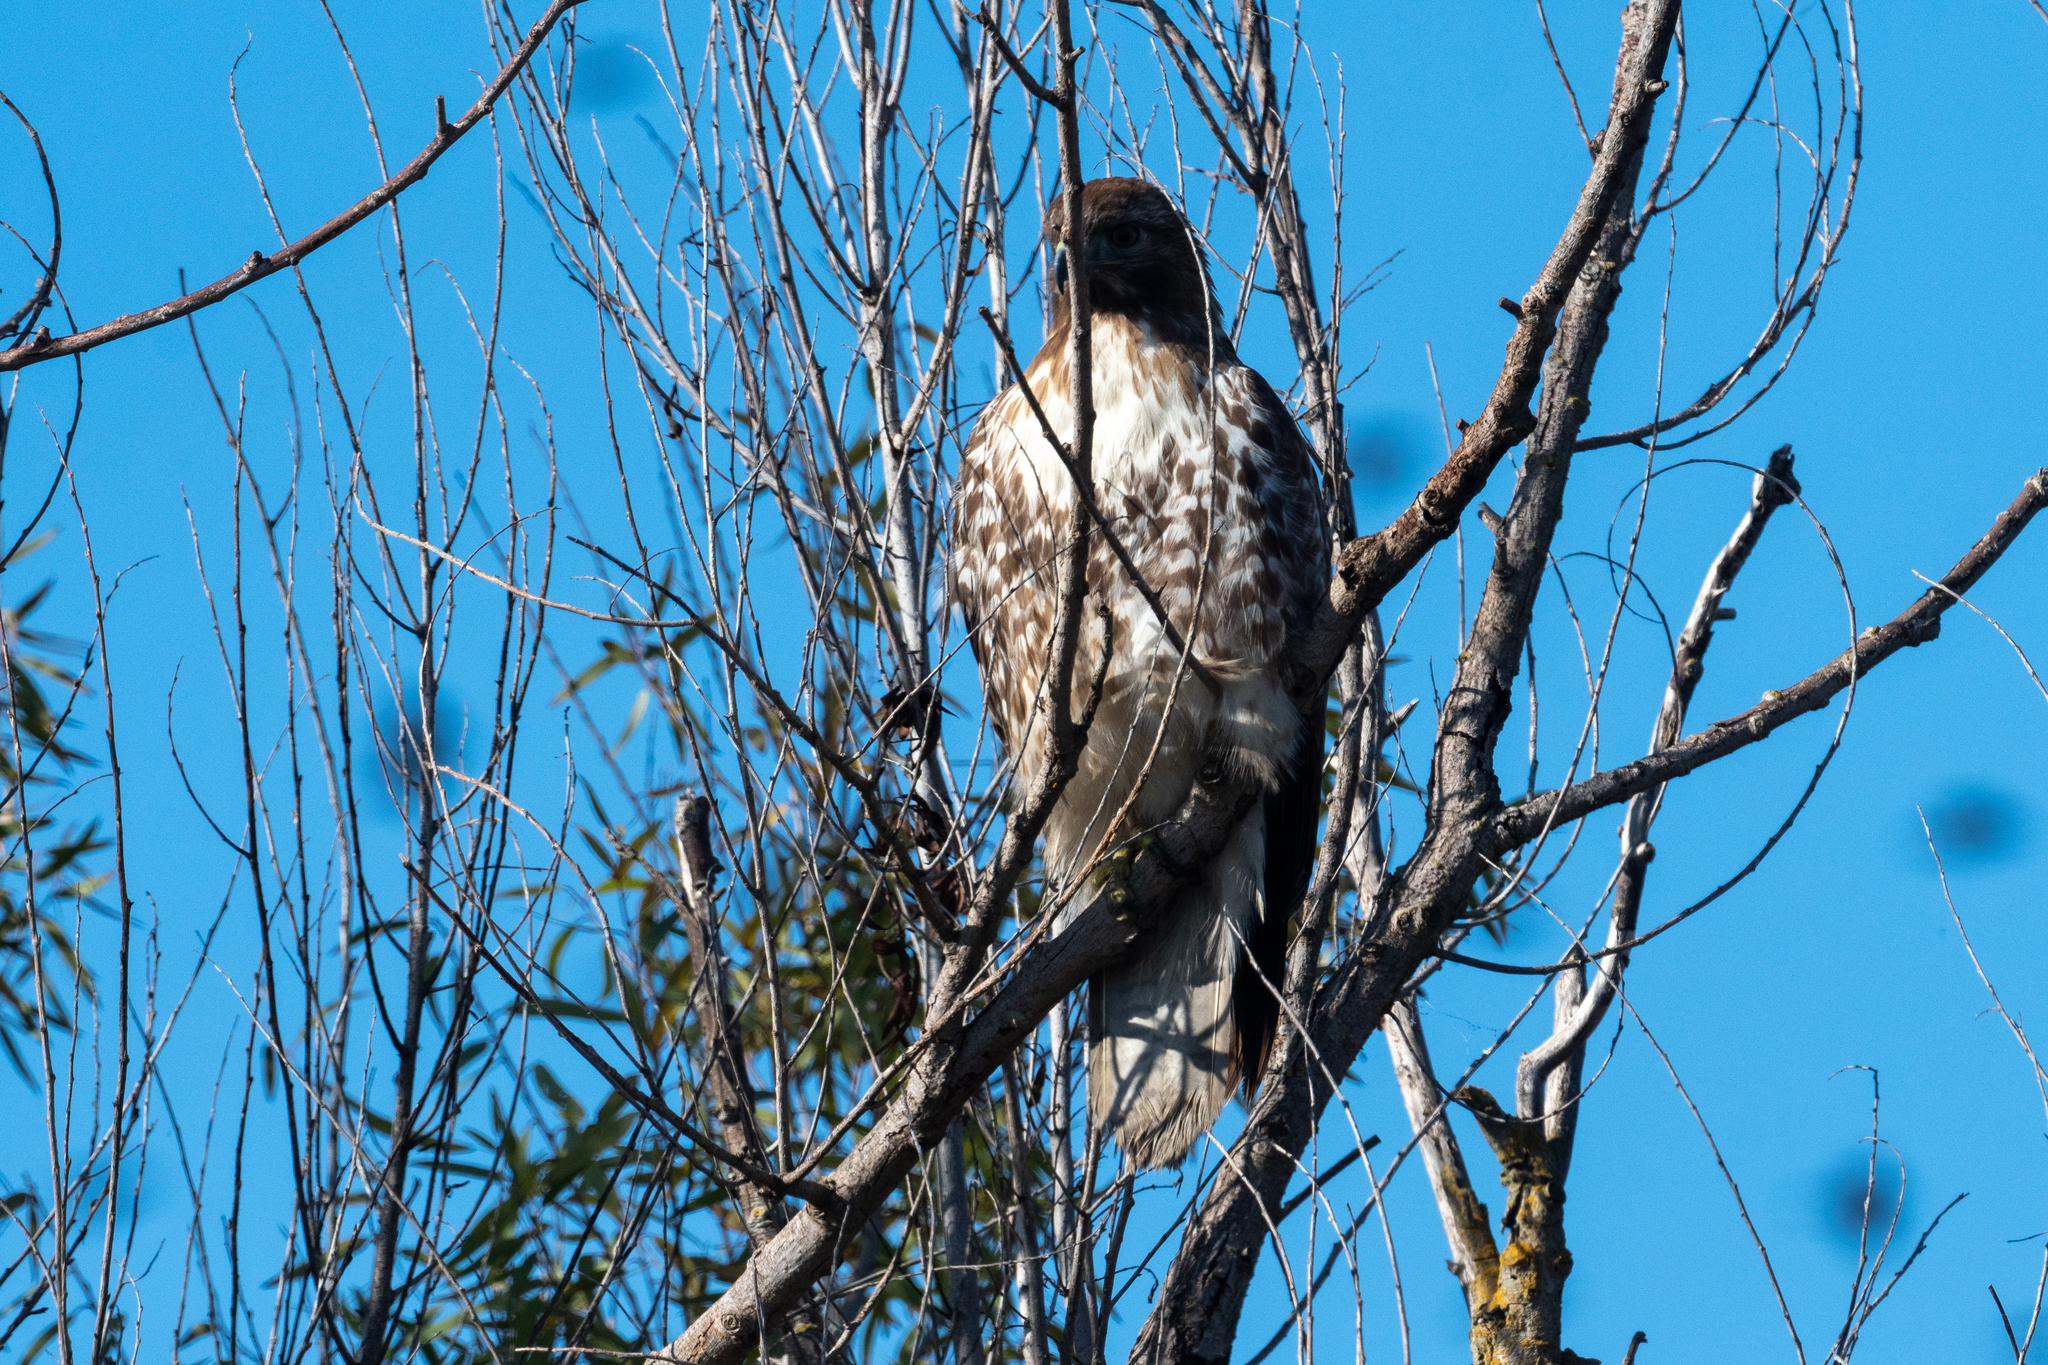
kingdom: Animalia
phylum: Chordata
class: Aves
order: Accipitriformes
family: Accipitridae
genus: Buteo
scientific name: Buteo jamaicensis
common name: Red-tailed hawk
